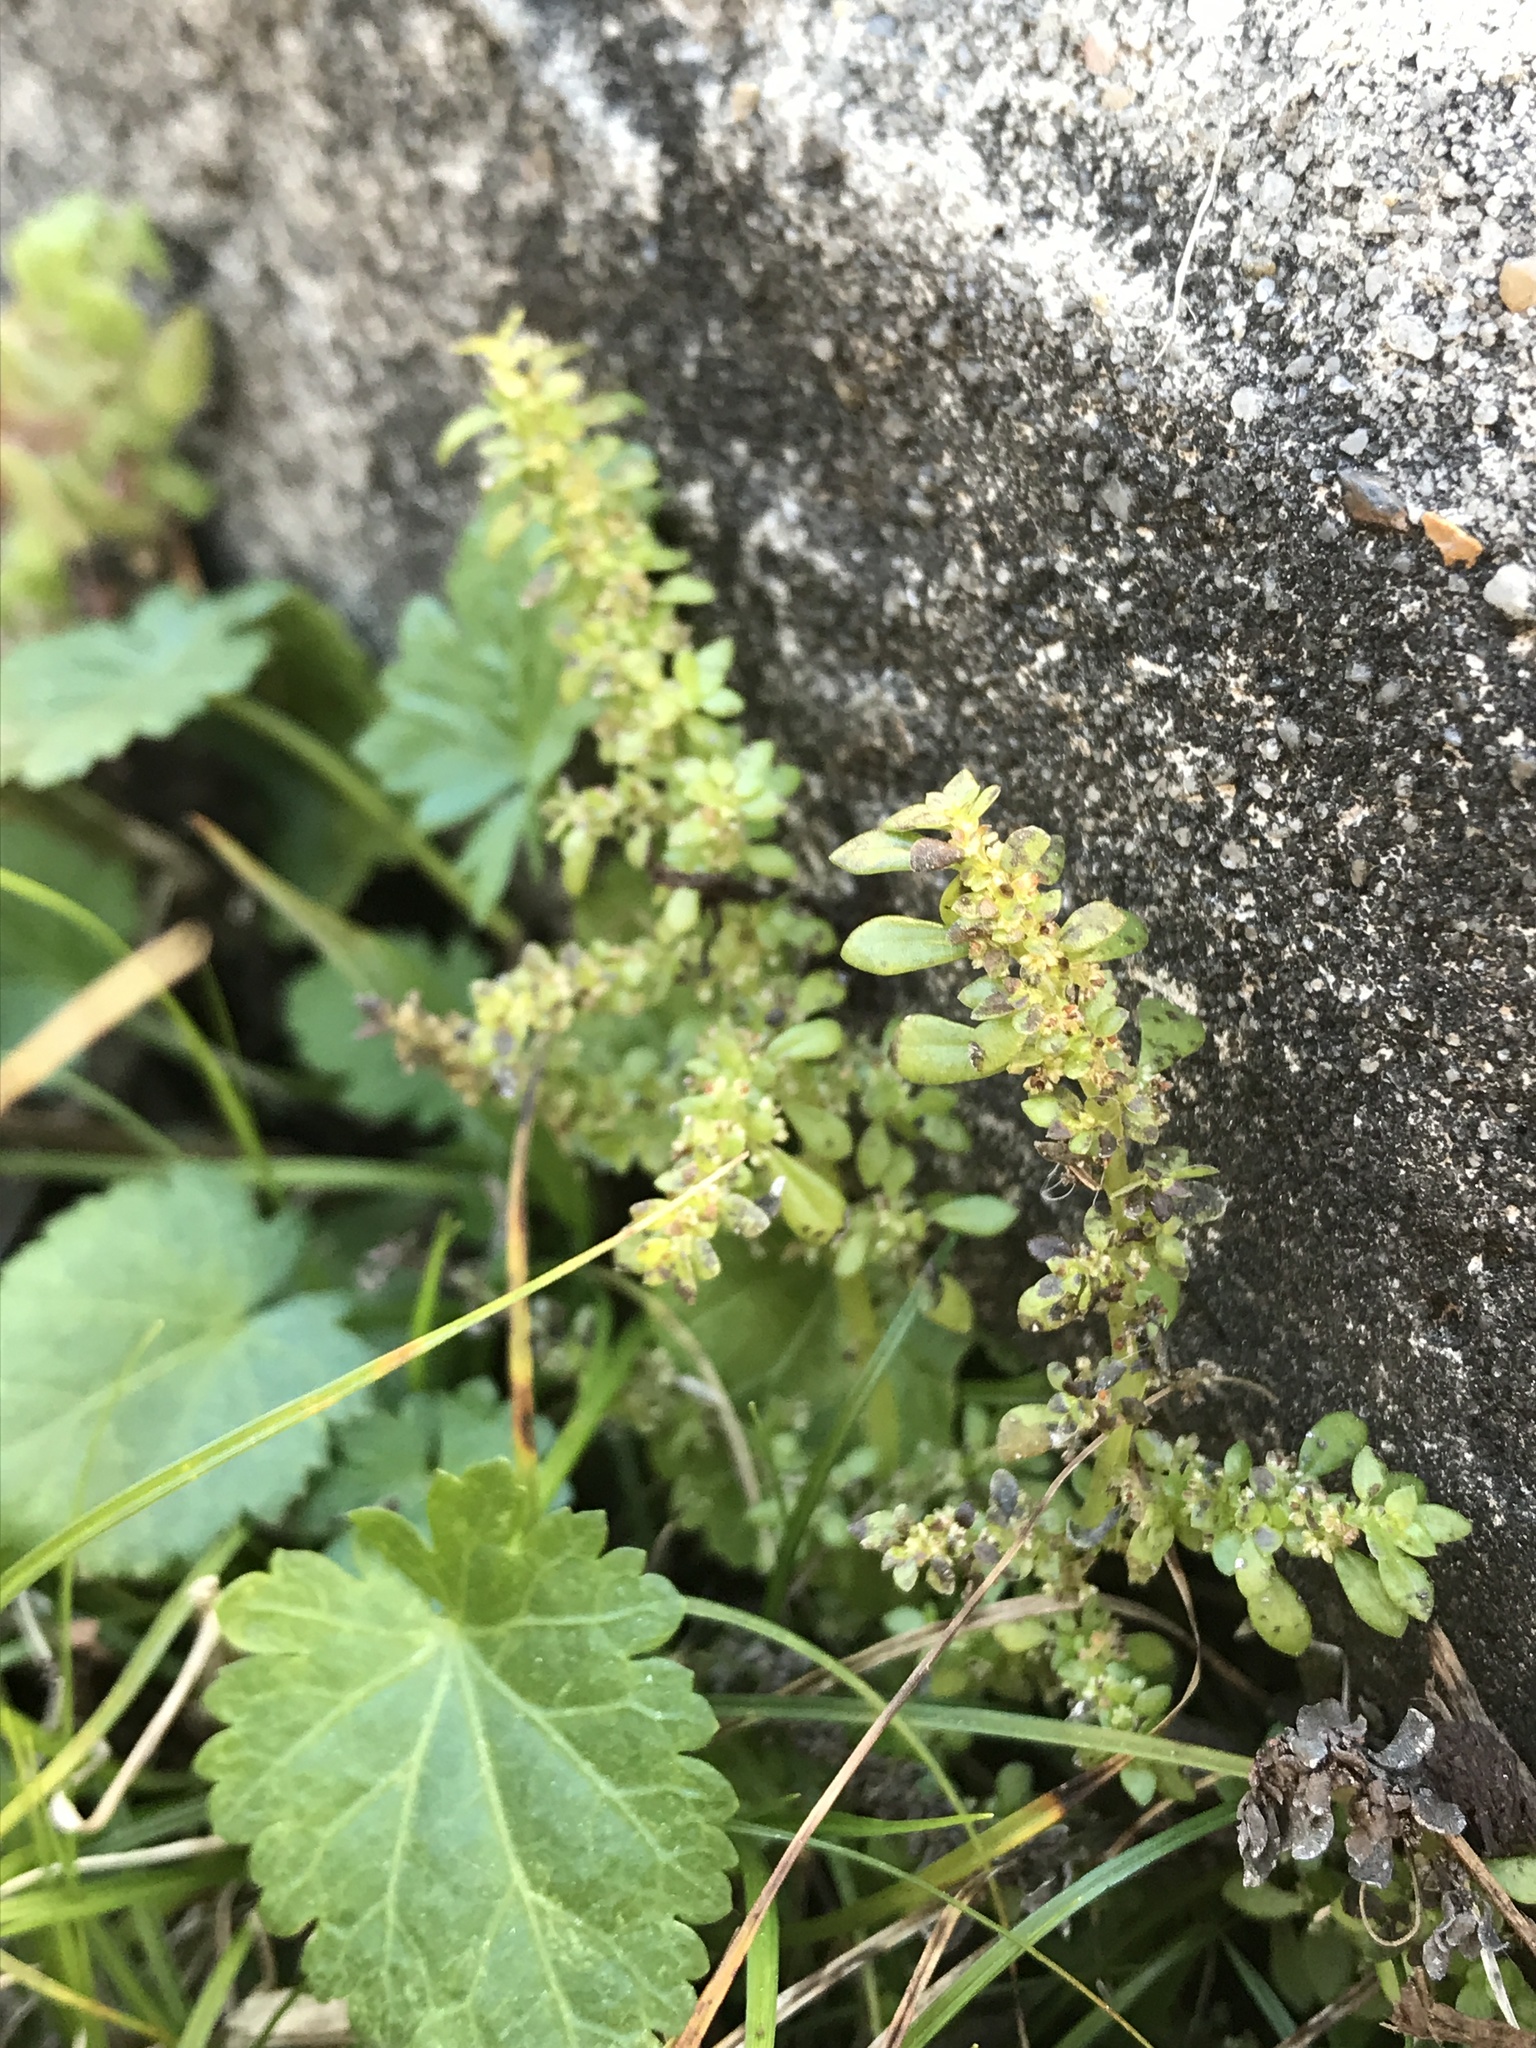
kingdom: Plantae
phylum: Tracheophyta
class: Magnoliopsida
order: Rosales
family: Urticaceae
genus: Pilea
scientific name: Pilea microphylla
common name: Artillery-plant
